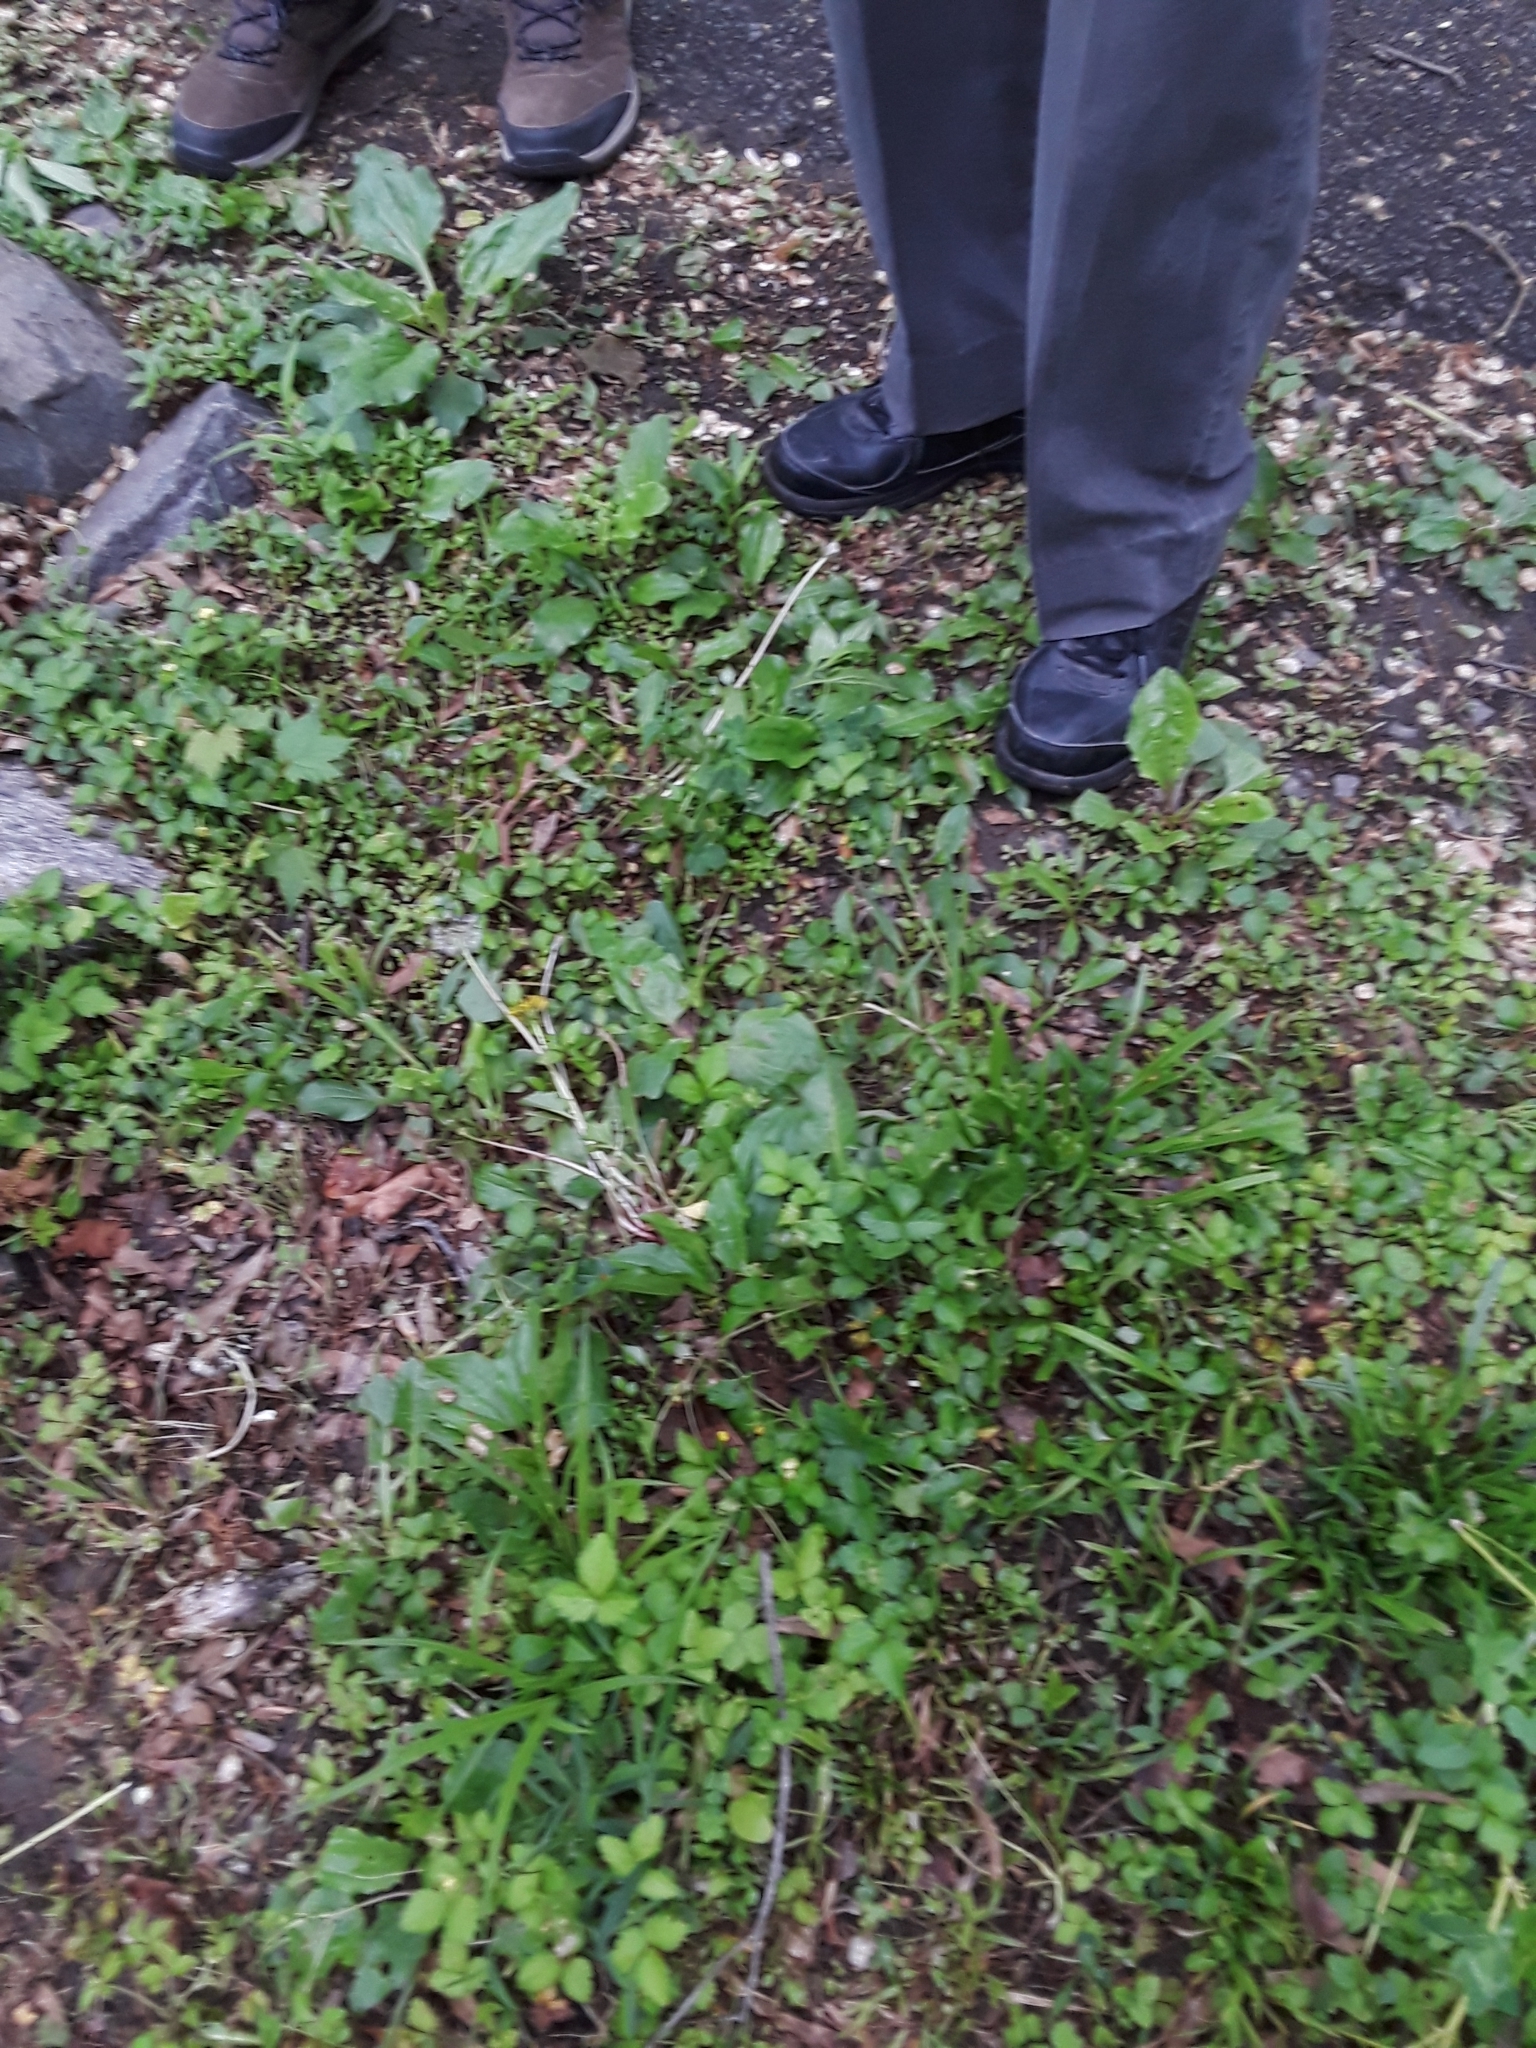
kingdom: Plantae
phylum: Tracheophyta
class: Magnoliopsida
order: Lamiales
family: Lamiaceae
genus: Glechoma
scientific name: Glechoma hederacea
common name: Ground ivy
